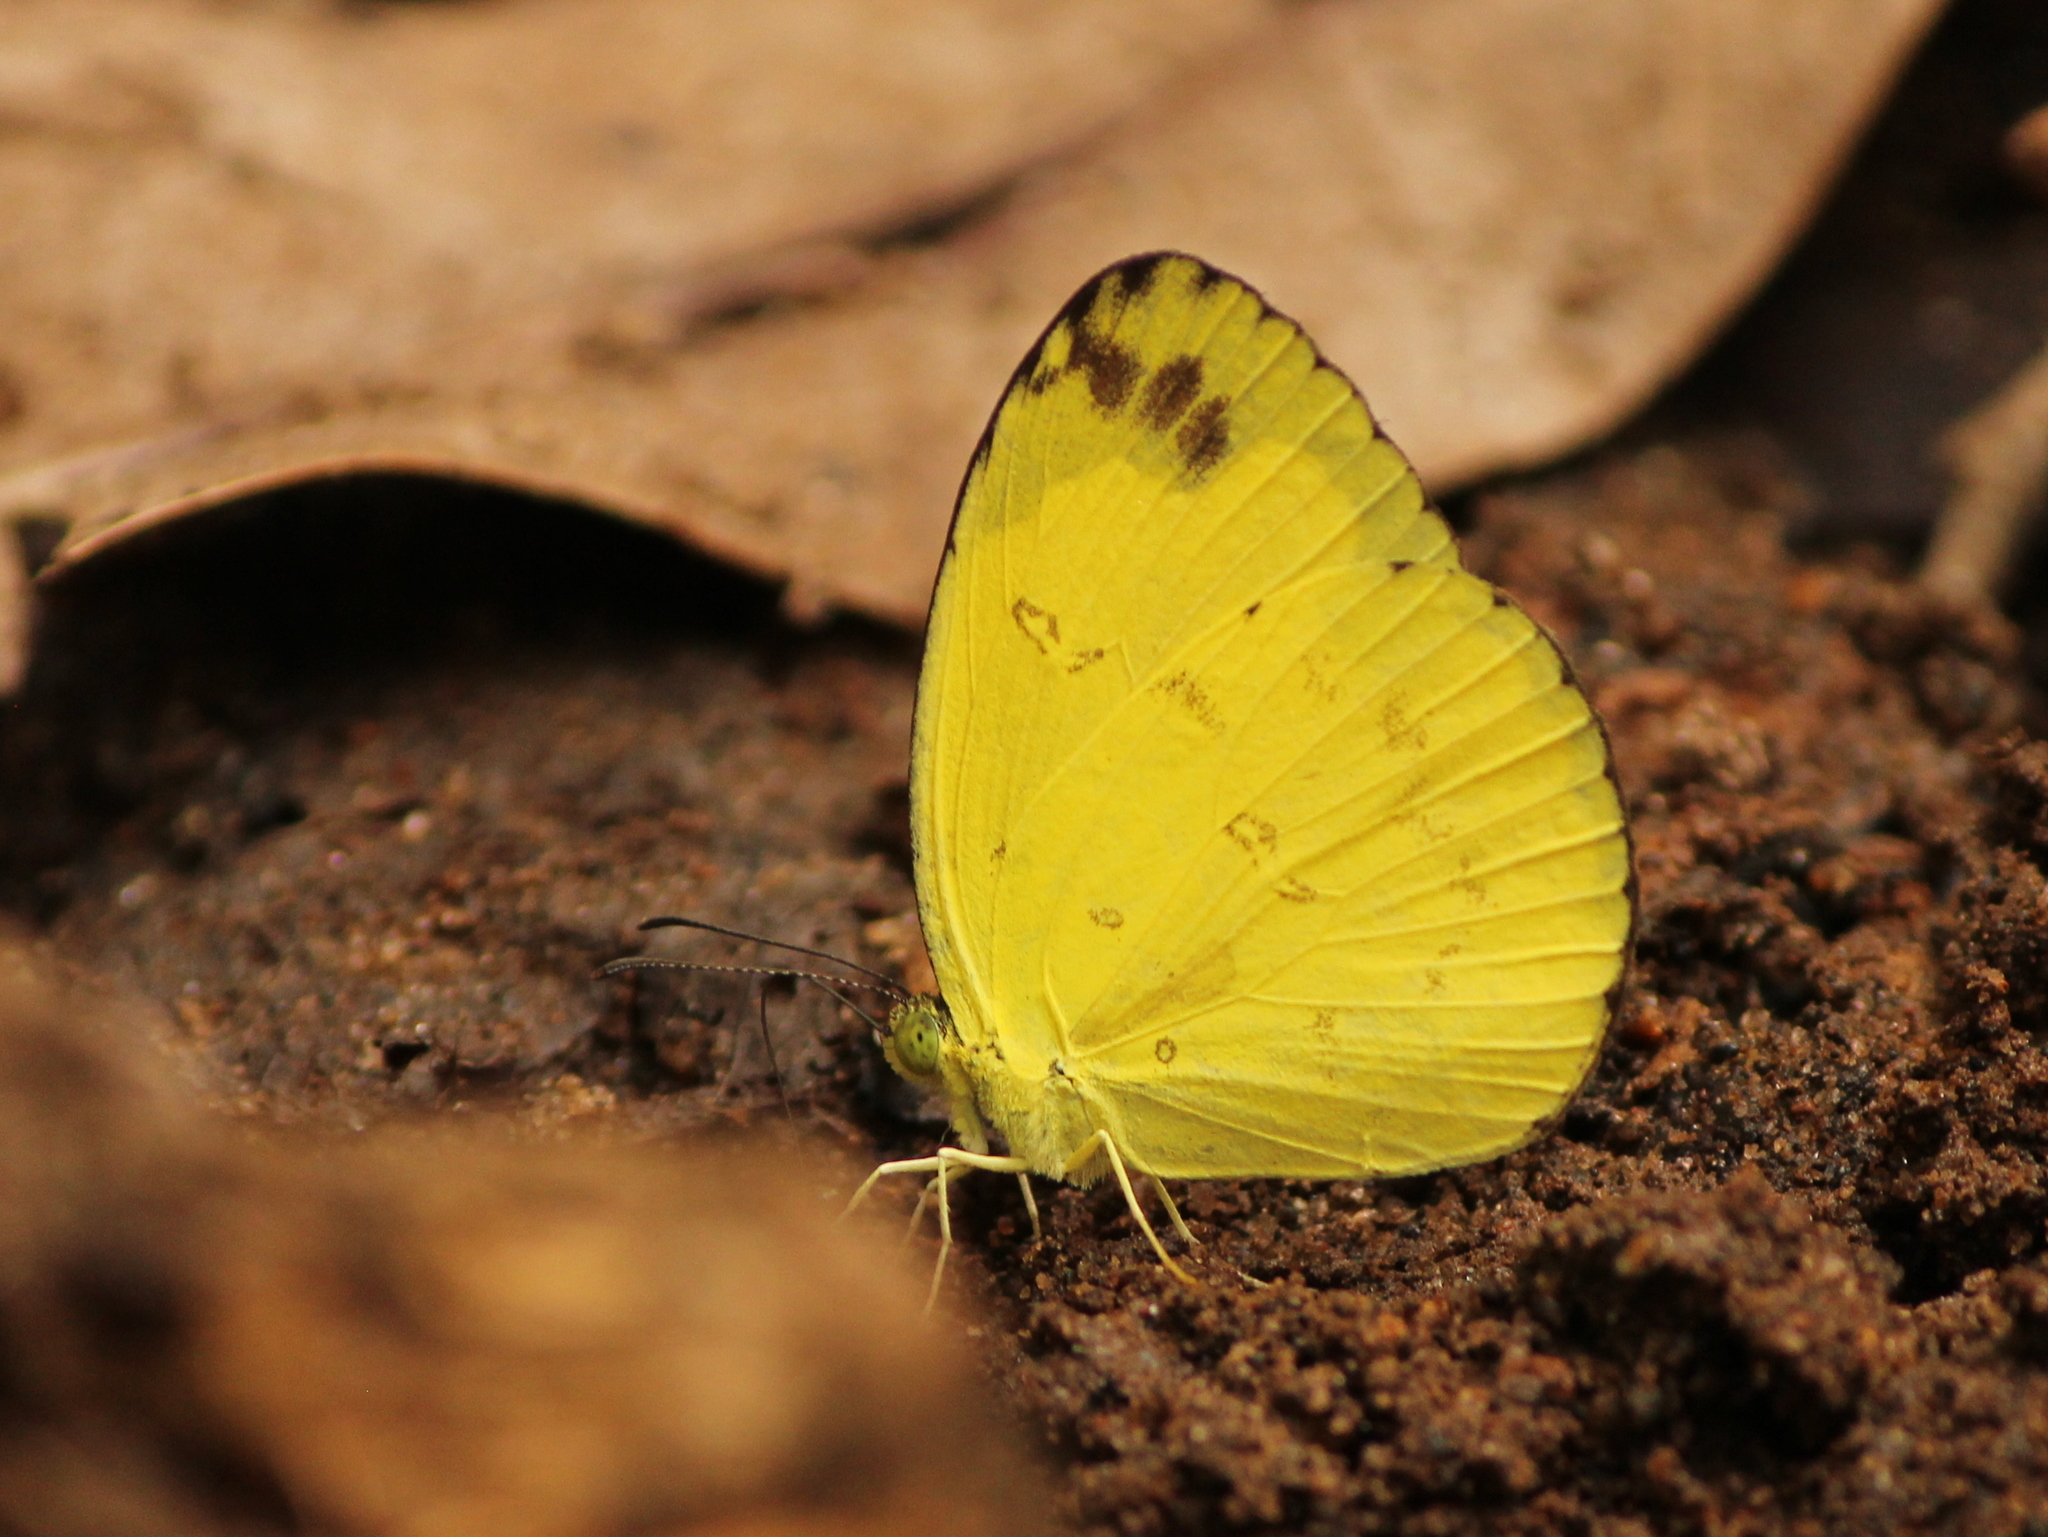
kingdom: Animalia
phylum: Arthropoda
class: Insecta
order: Lepidoptera
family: Pieridae
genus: Eurema
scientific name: Eurema andersoni
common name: One-spot yellow grass
